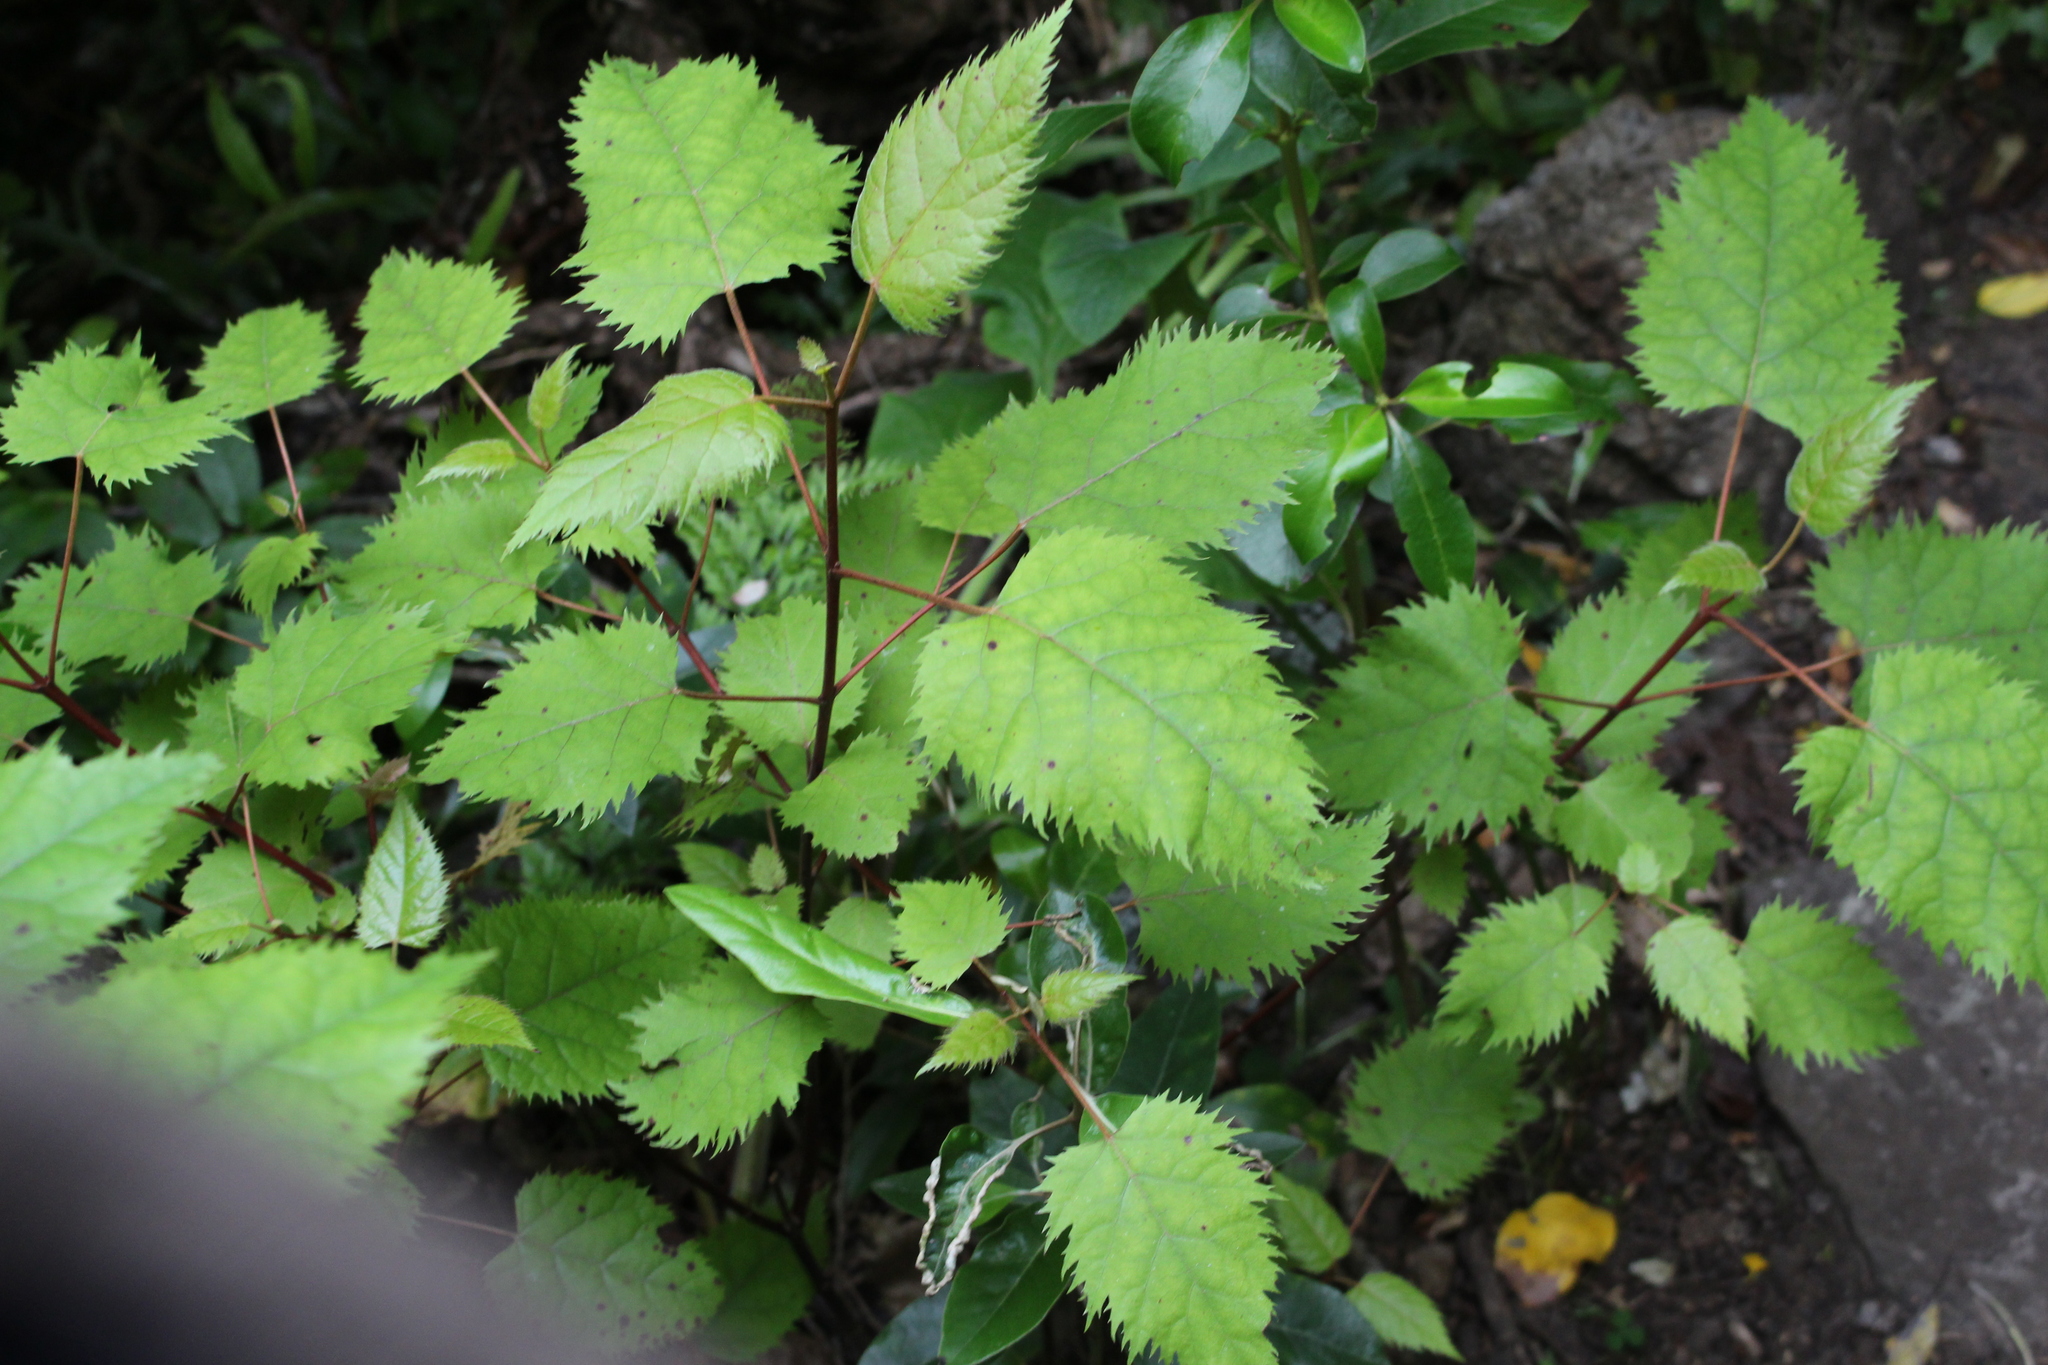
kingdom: Plantae
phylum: Tracheophyta
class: Magnoliopsida
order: Oxalidales
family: Elaeocarpaceae
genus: Aristotelia
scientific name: Aristotelia serrata
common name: New zealand wineberry
